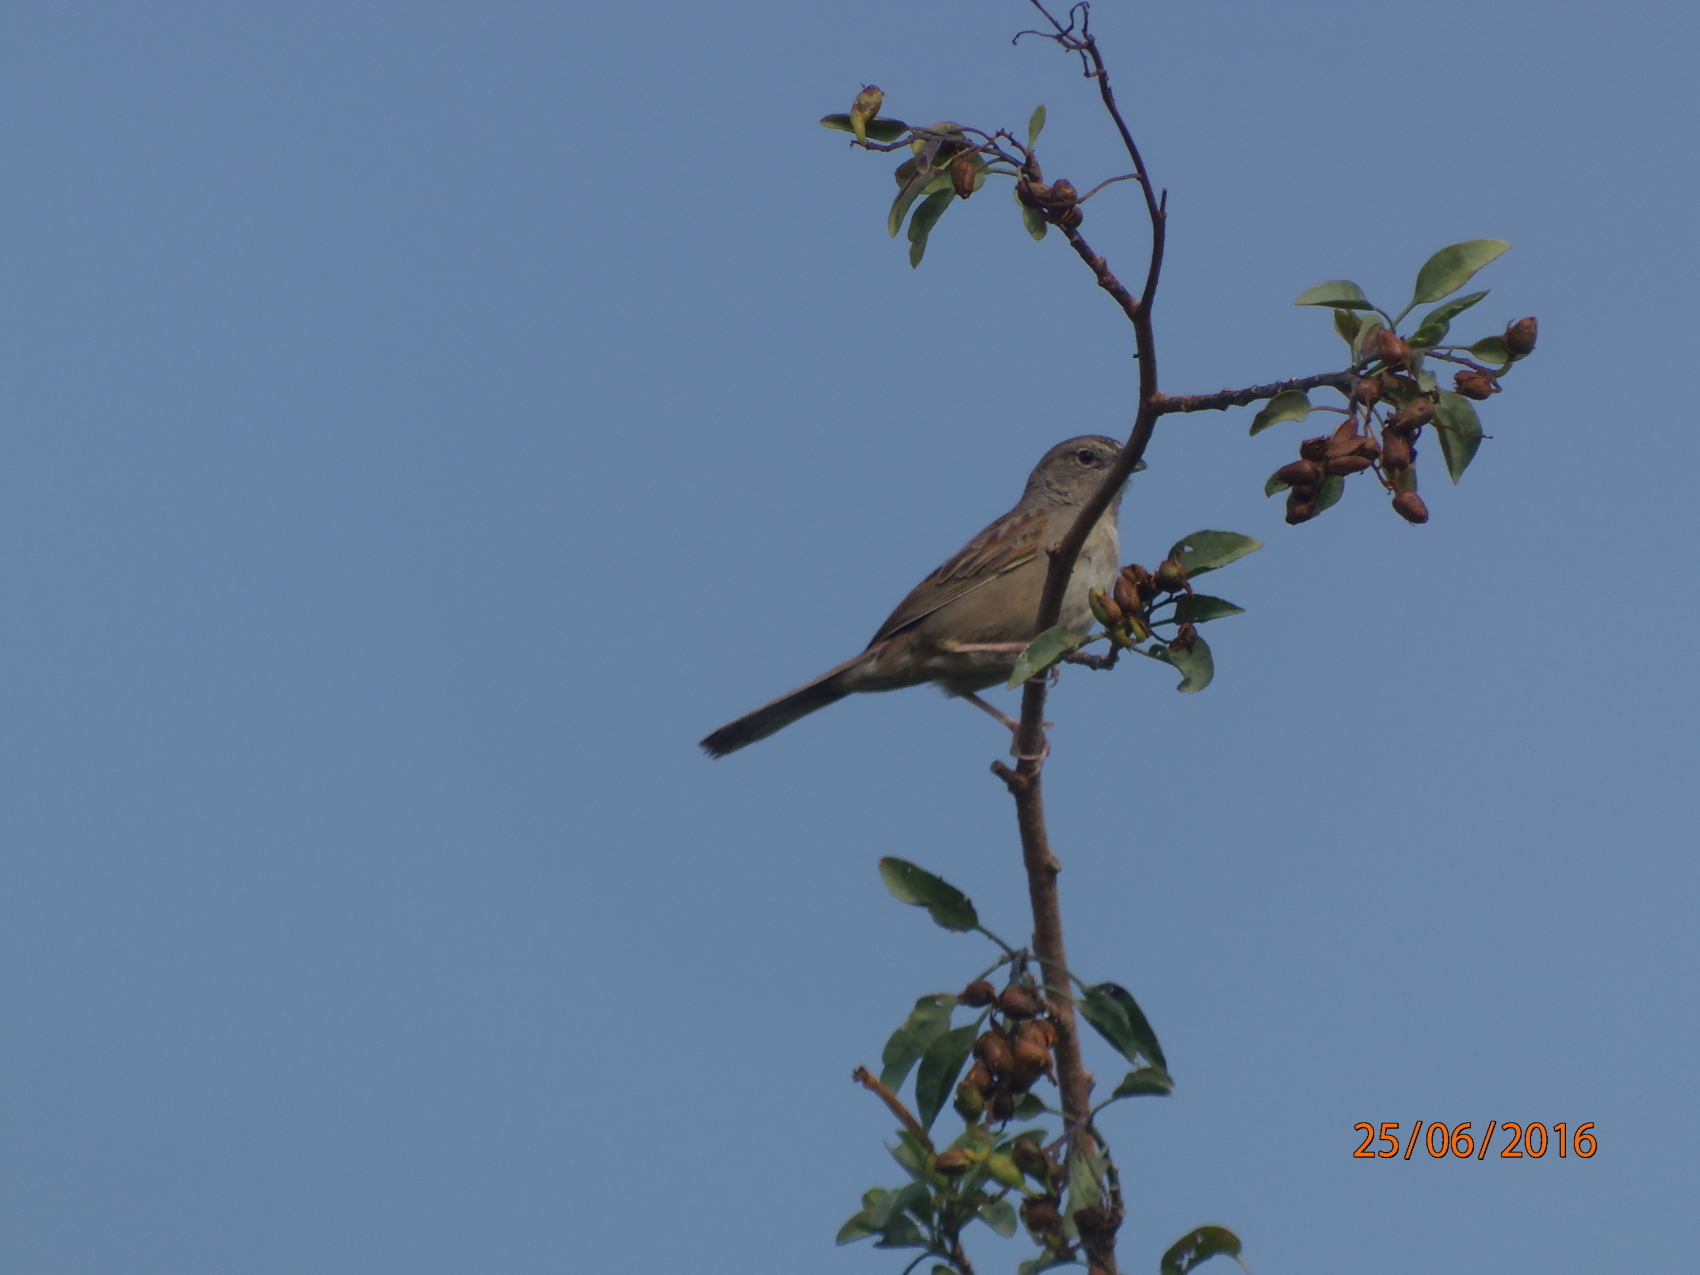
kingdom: Animalia
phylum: Chordata
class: Aves
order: Passeriformes
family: Passerellidae
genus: Aimophila
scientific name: Aimophila ruficeps
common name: Rufous-crowned sparrow
